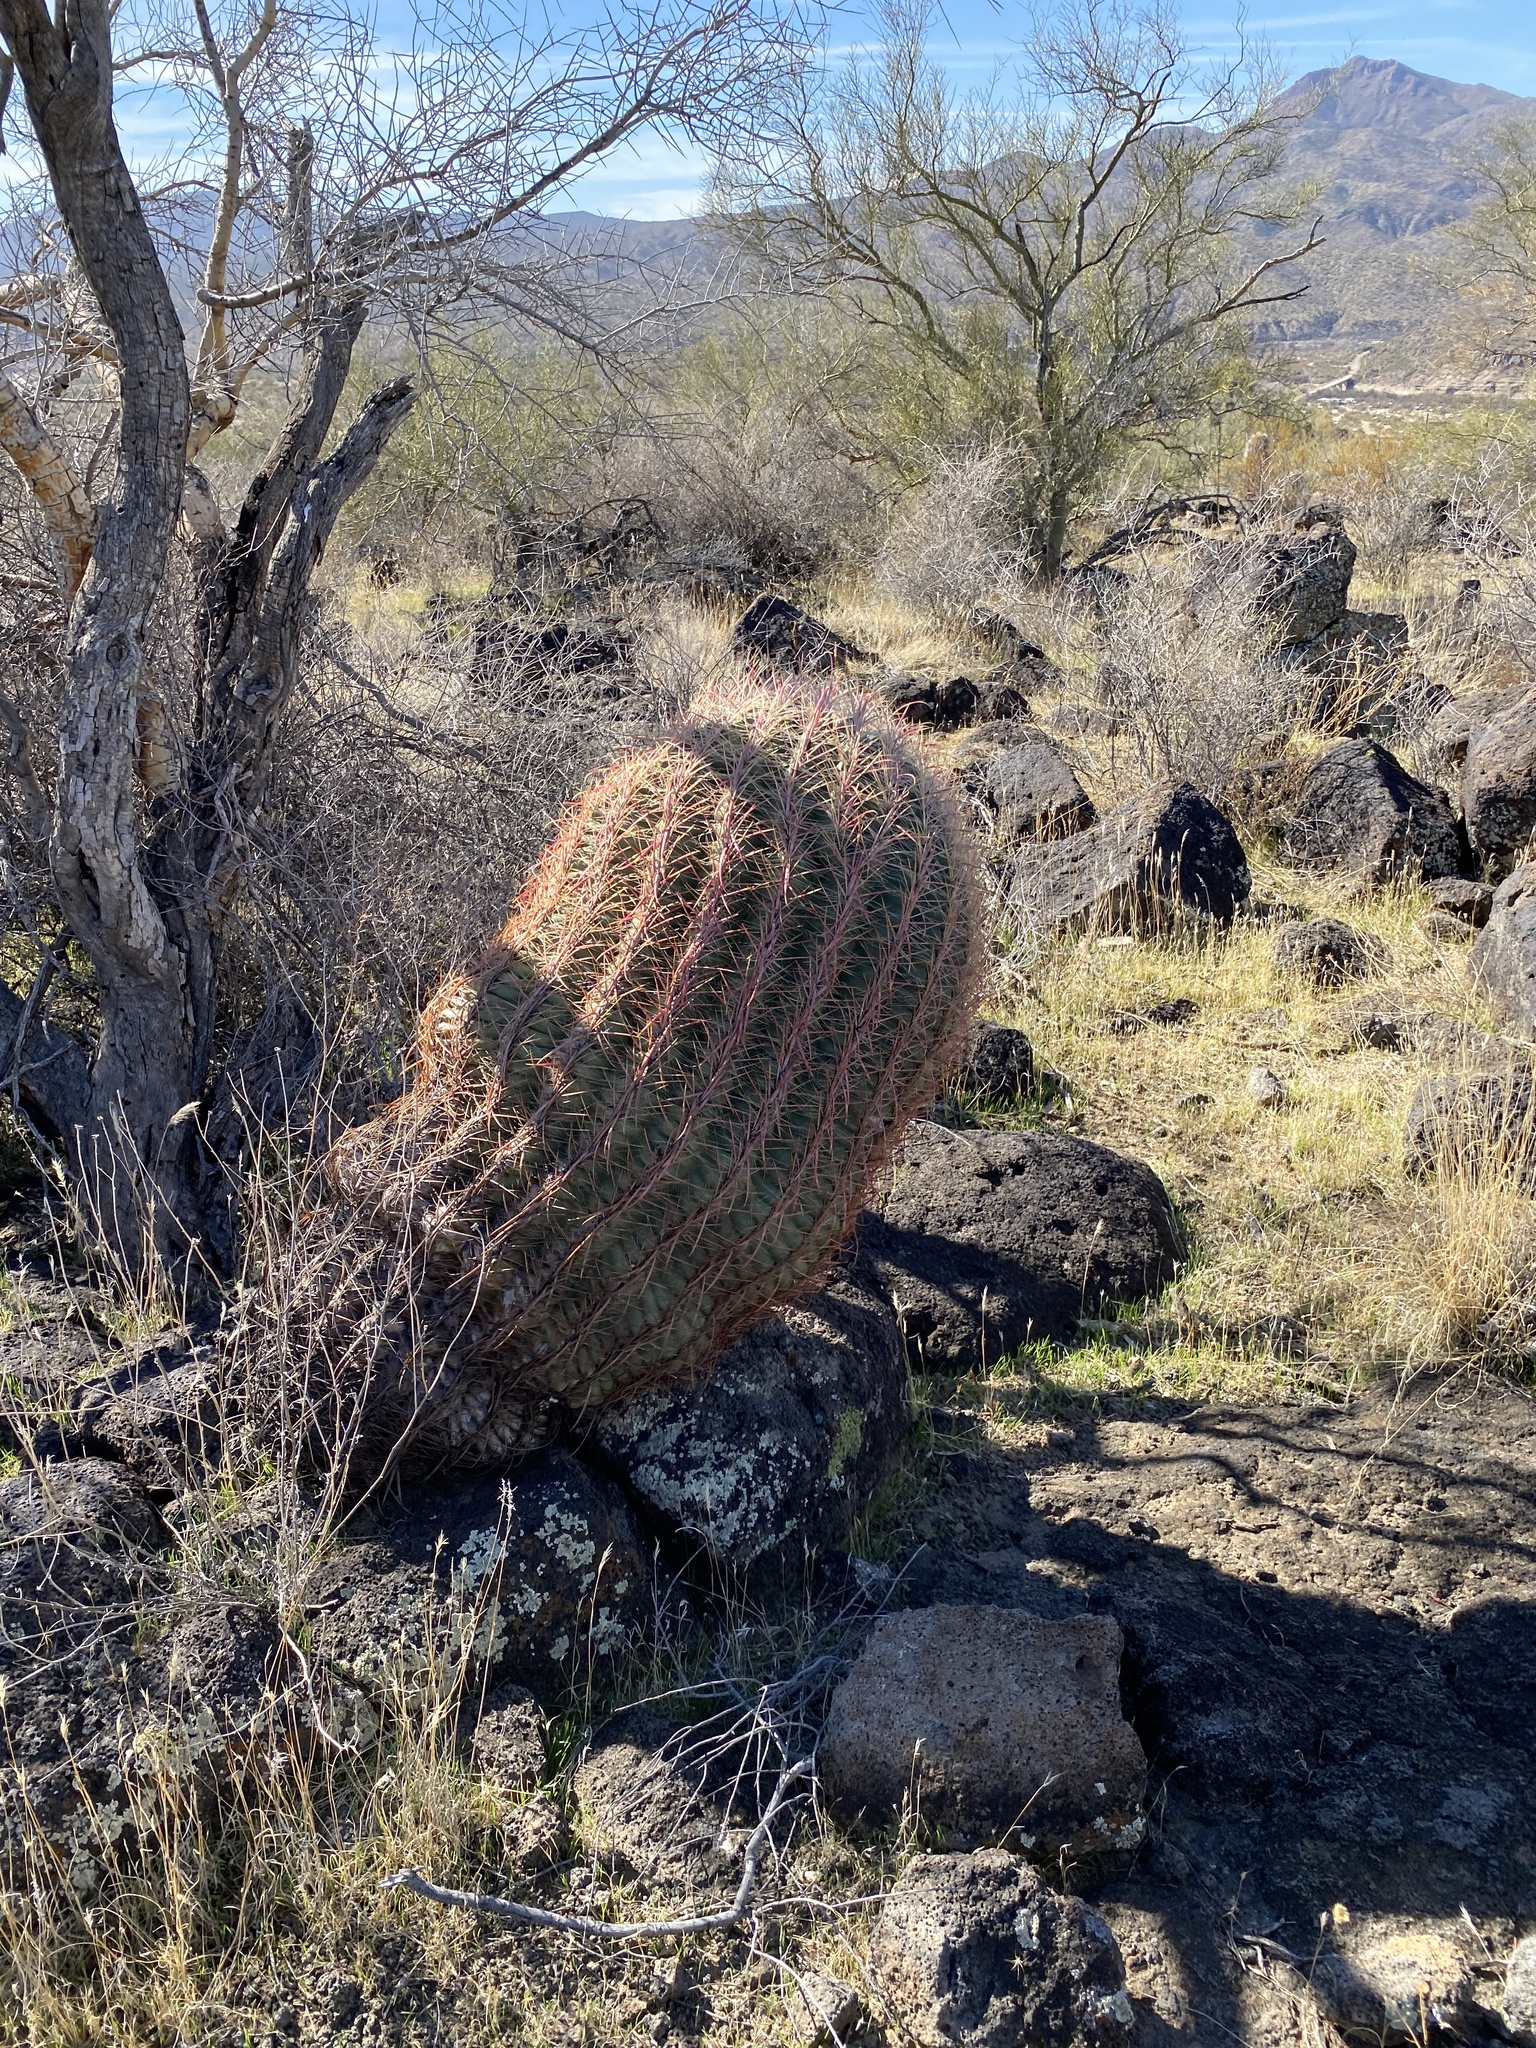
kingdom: Plantae
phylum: Tracheophyta
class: Magnoliopsida
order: Caryophyllales
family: Cactaceae
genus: Ferocactus
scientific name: Ferocactus cylindraceus
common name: California barrel cactus
